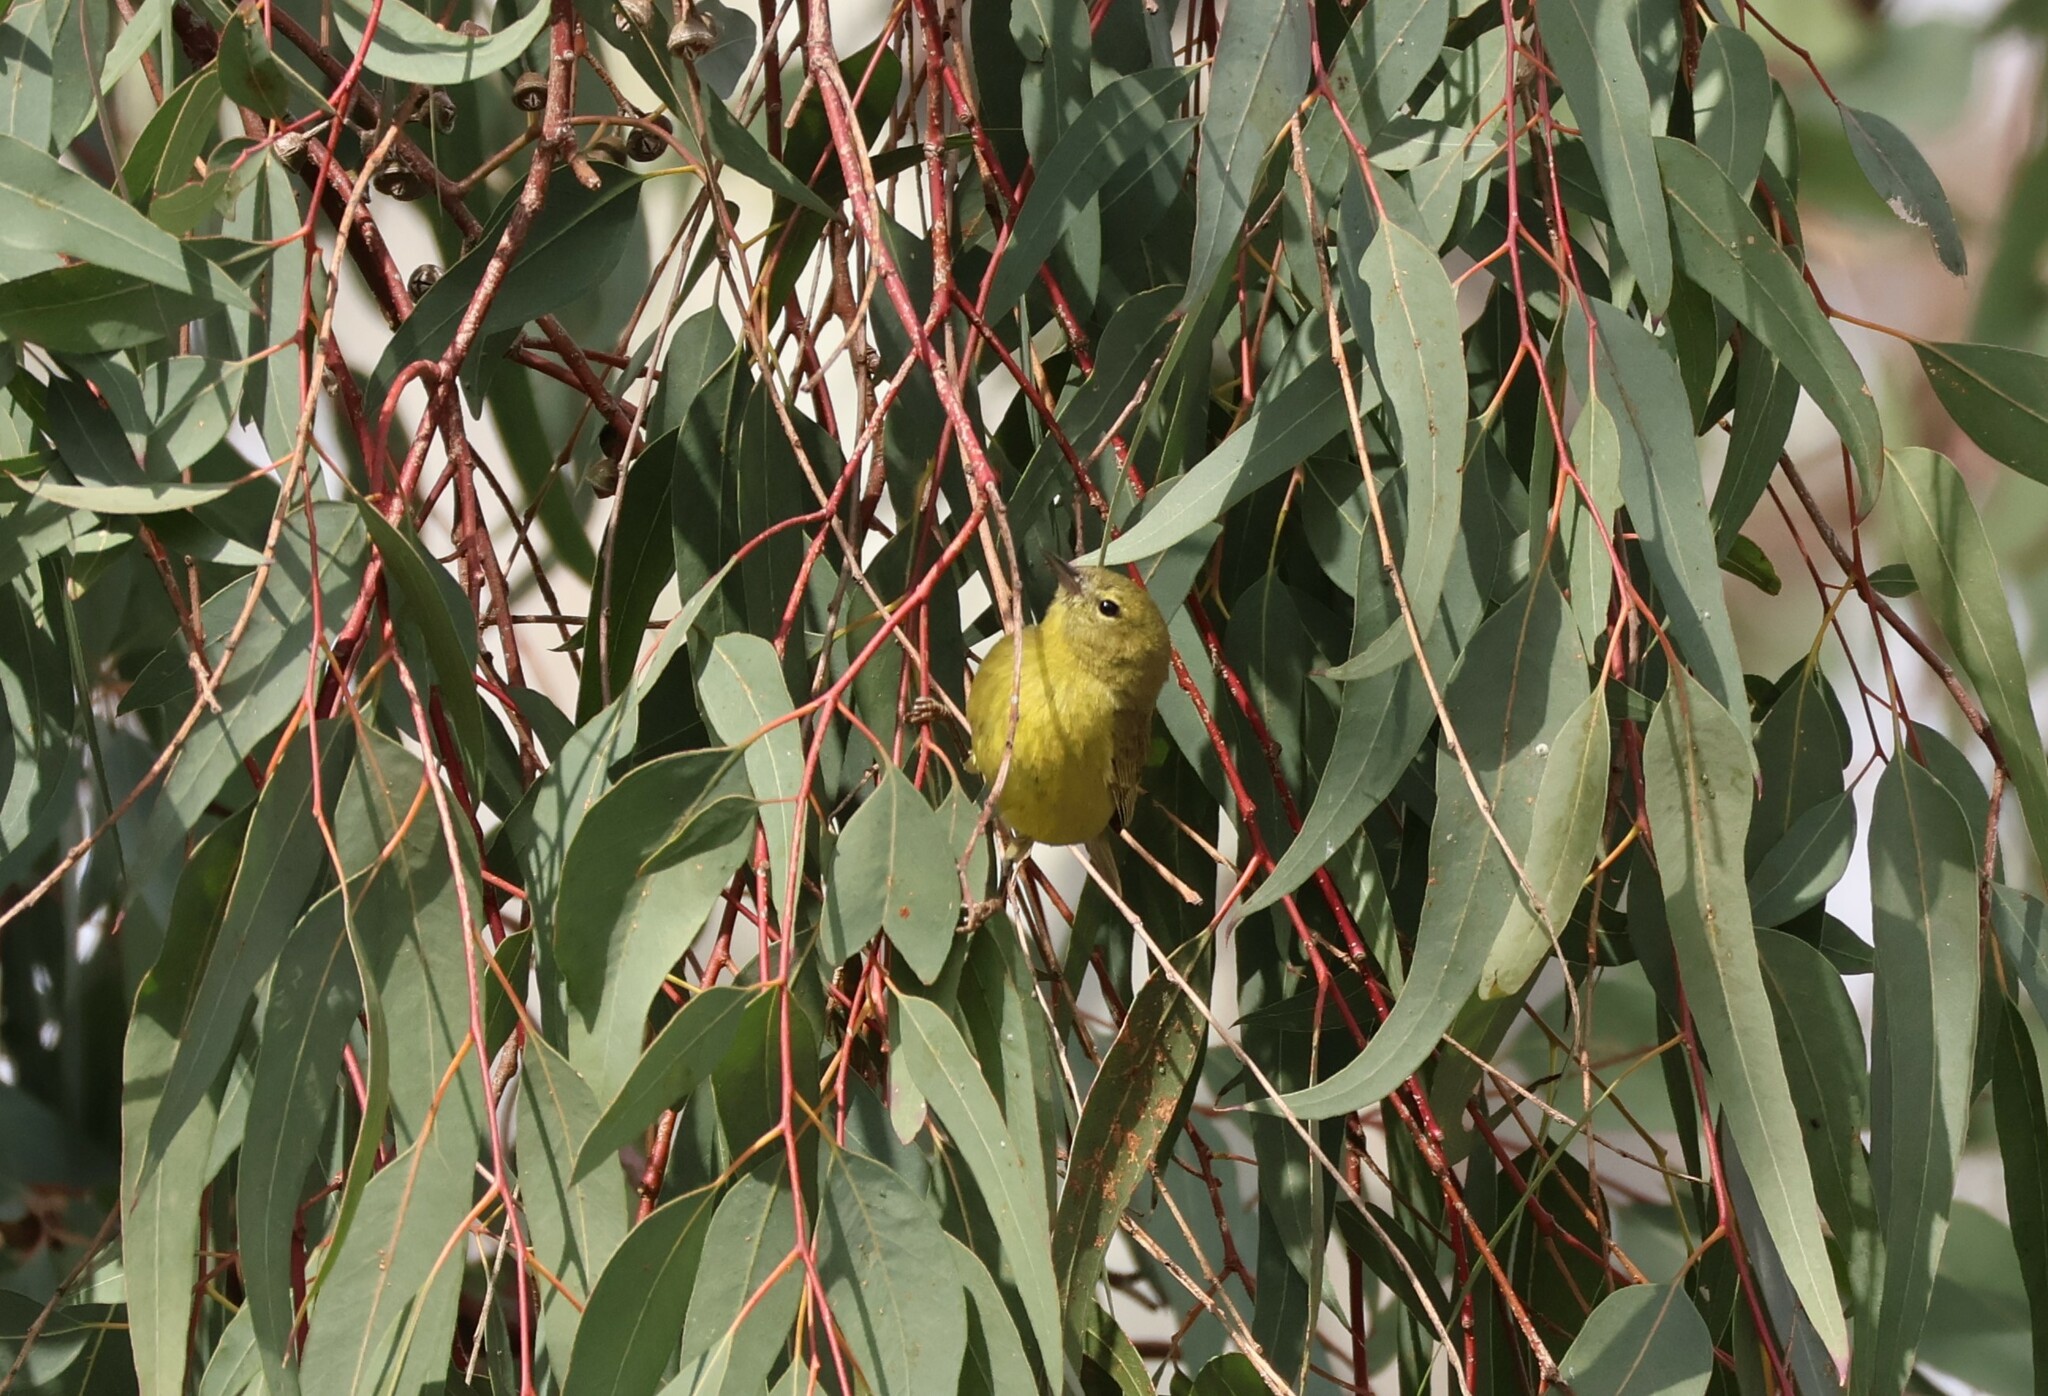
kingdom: Animalia
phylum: Chordata
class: Aves
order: Passeriformes
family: Parulidae
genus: Leiothlypis
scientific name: Leiothlypis celata
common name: Orange-crowned warbler
